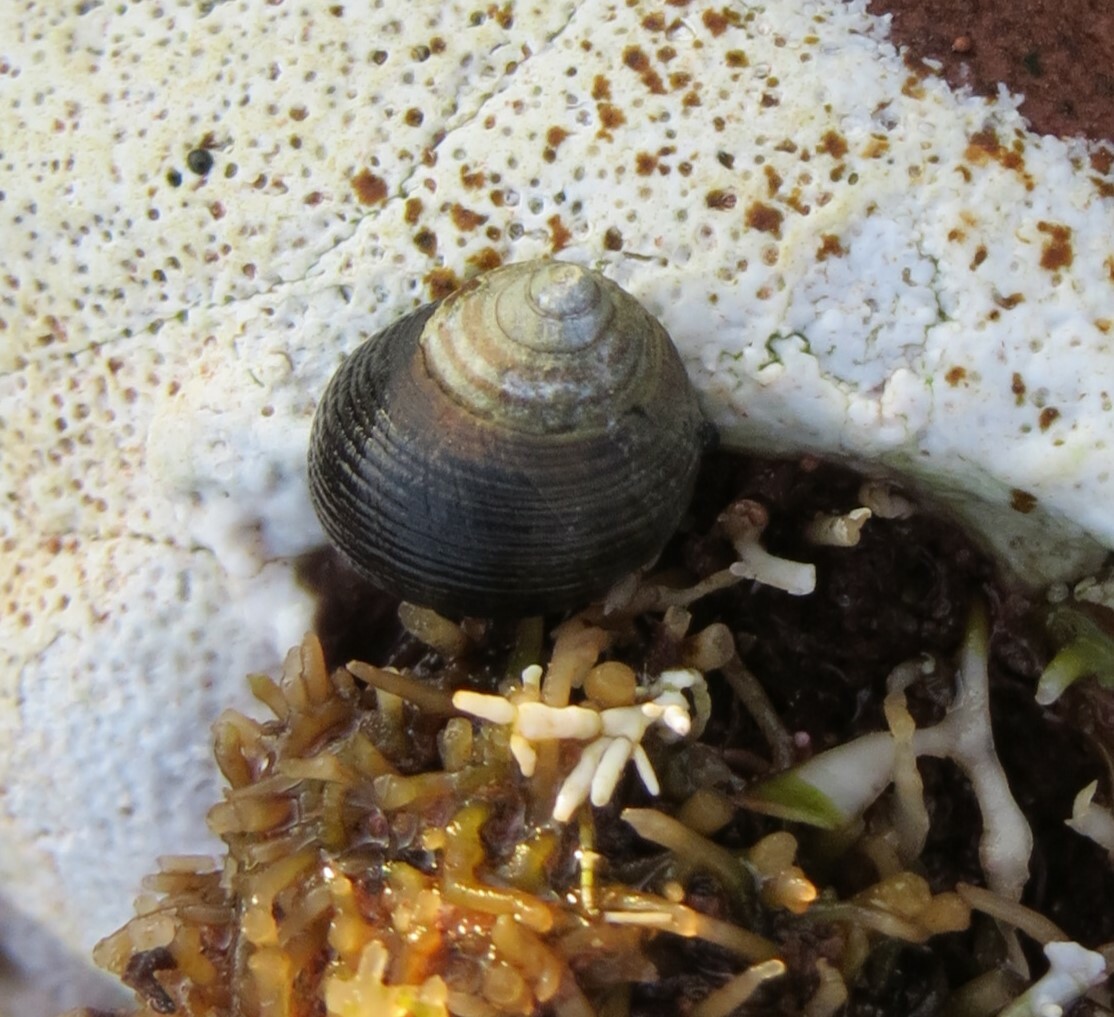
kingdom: Animalia
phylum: Mollusca
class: Gastropoda
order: Littorinimorpha
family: Littorinidae
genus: Littorina
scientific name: Littorina littorea
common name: Common periwinkle
